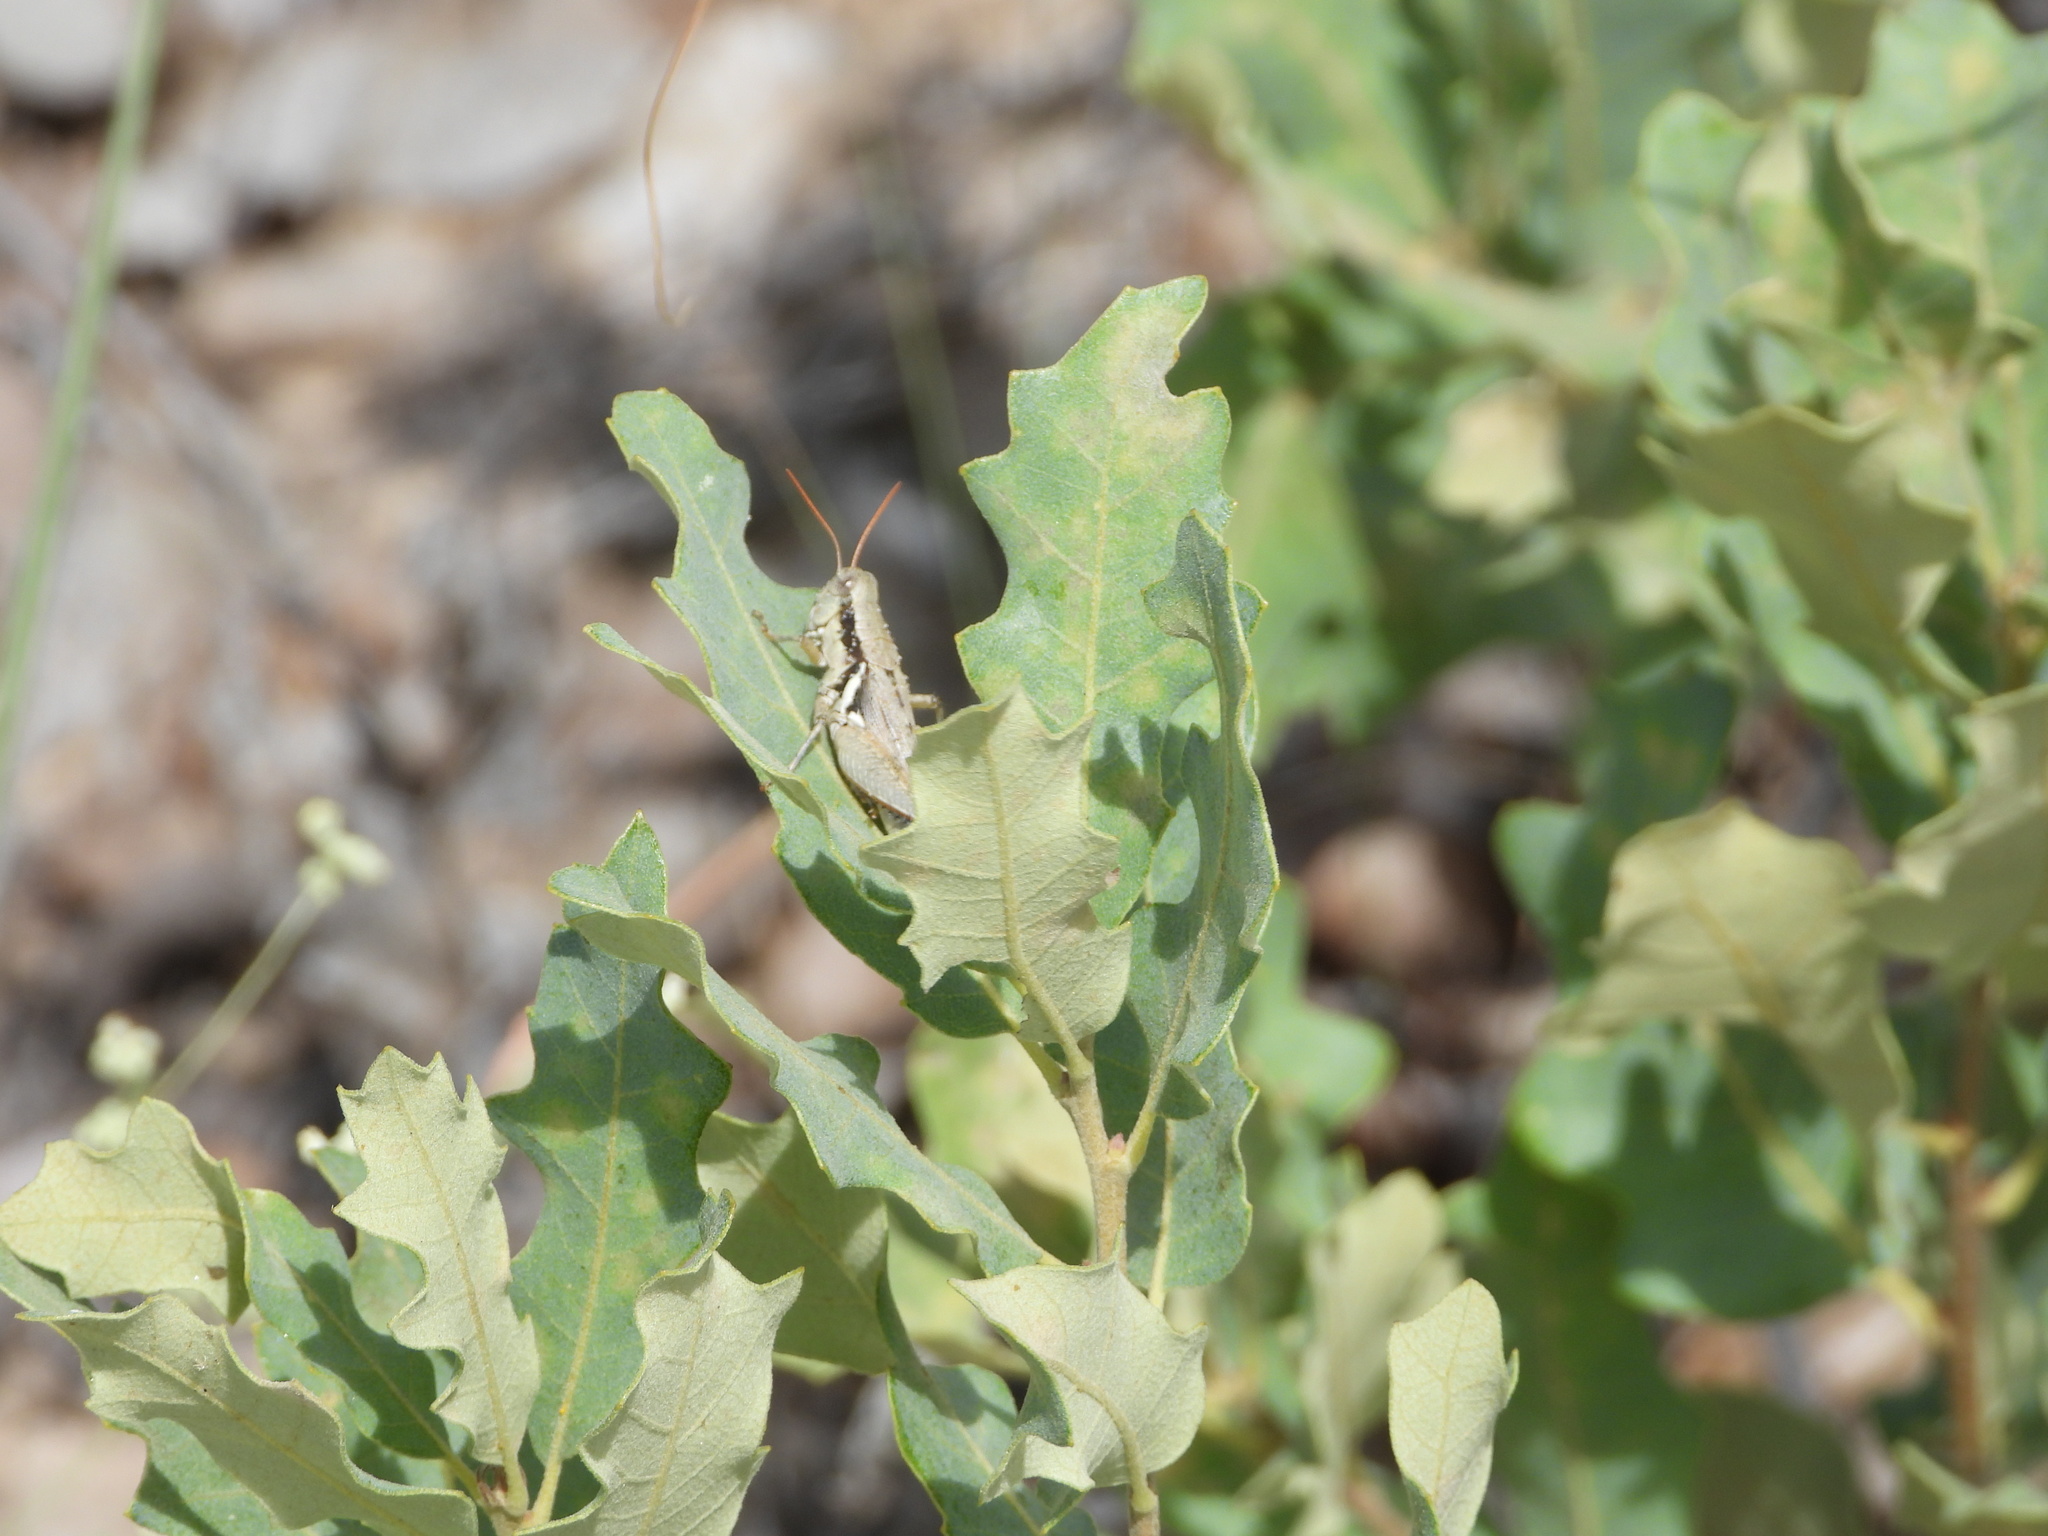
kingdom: Animalia
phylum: Arthropoda
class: Insecta
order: Orthoptera
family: Acrididae
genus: Melanoplus
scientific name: Melanoplus discolor
